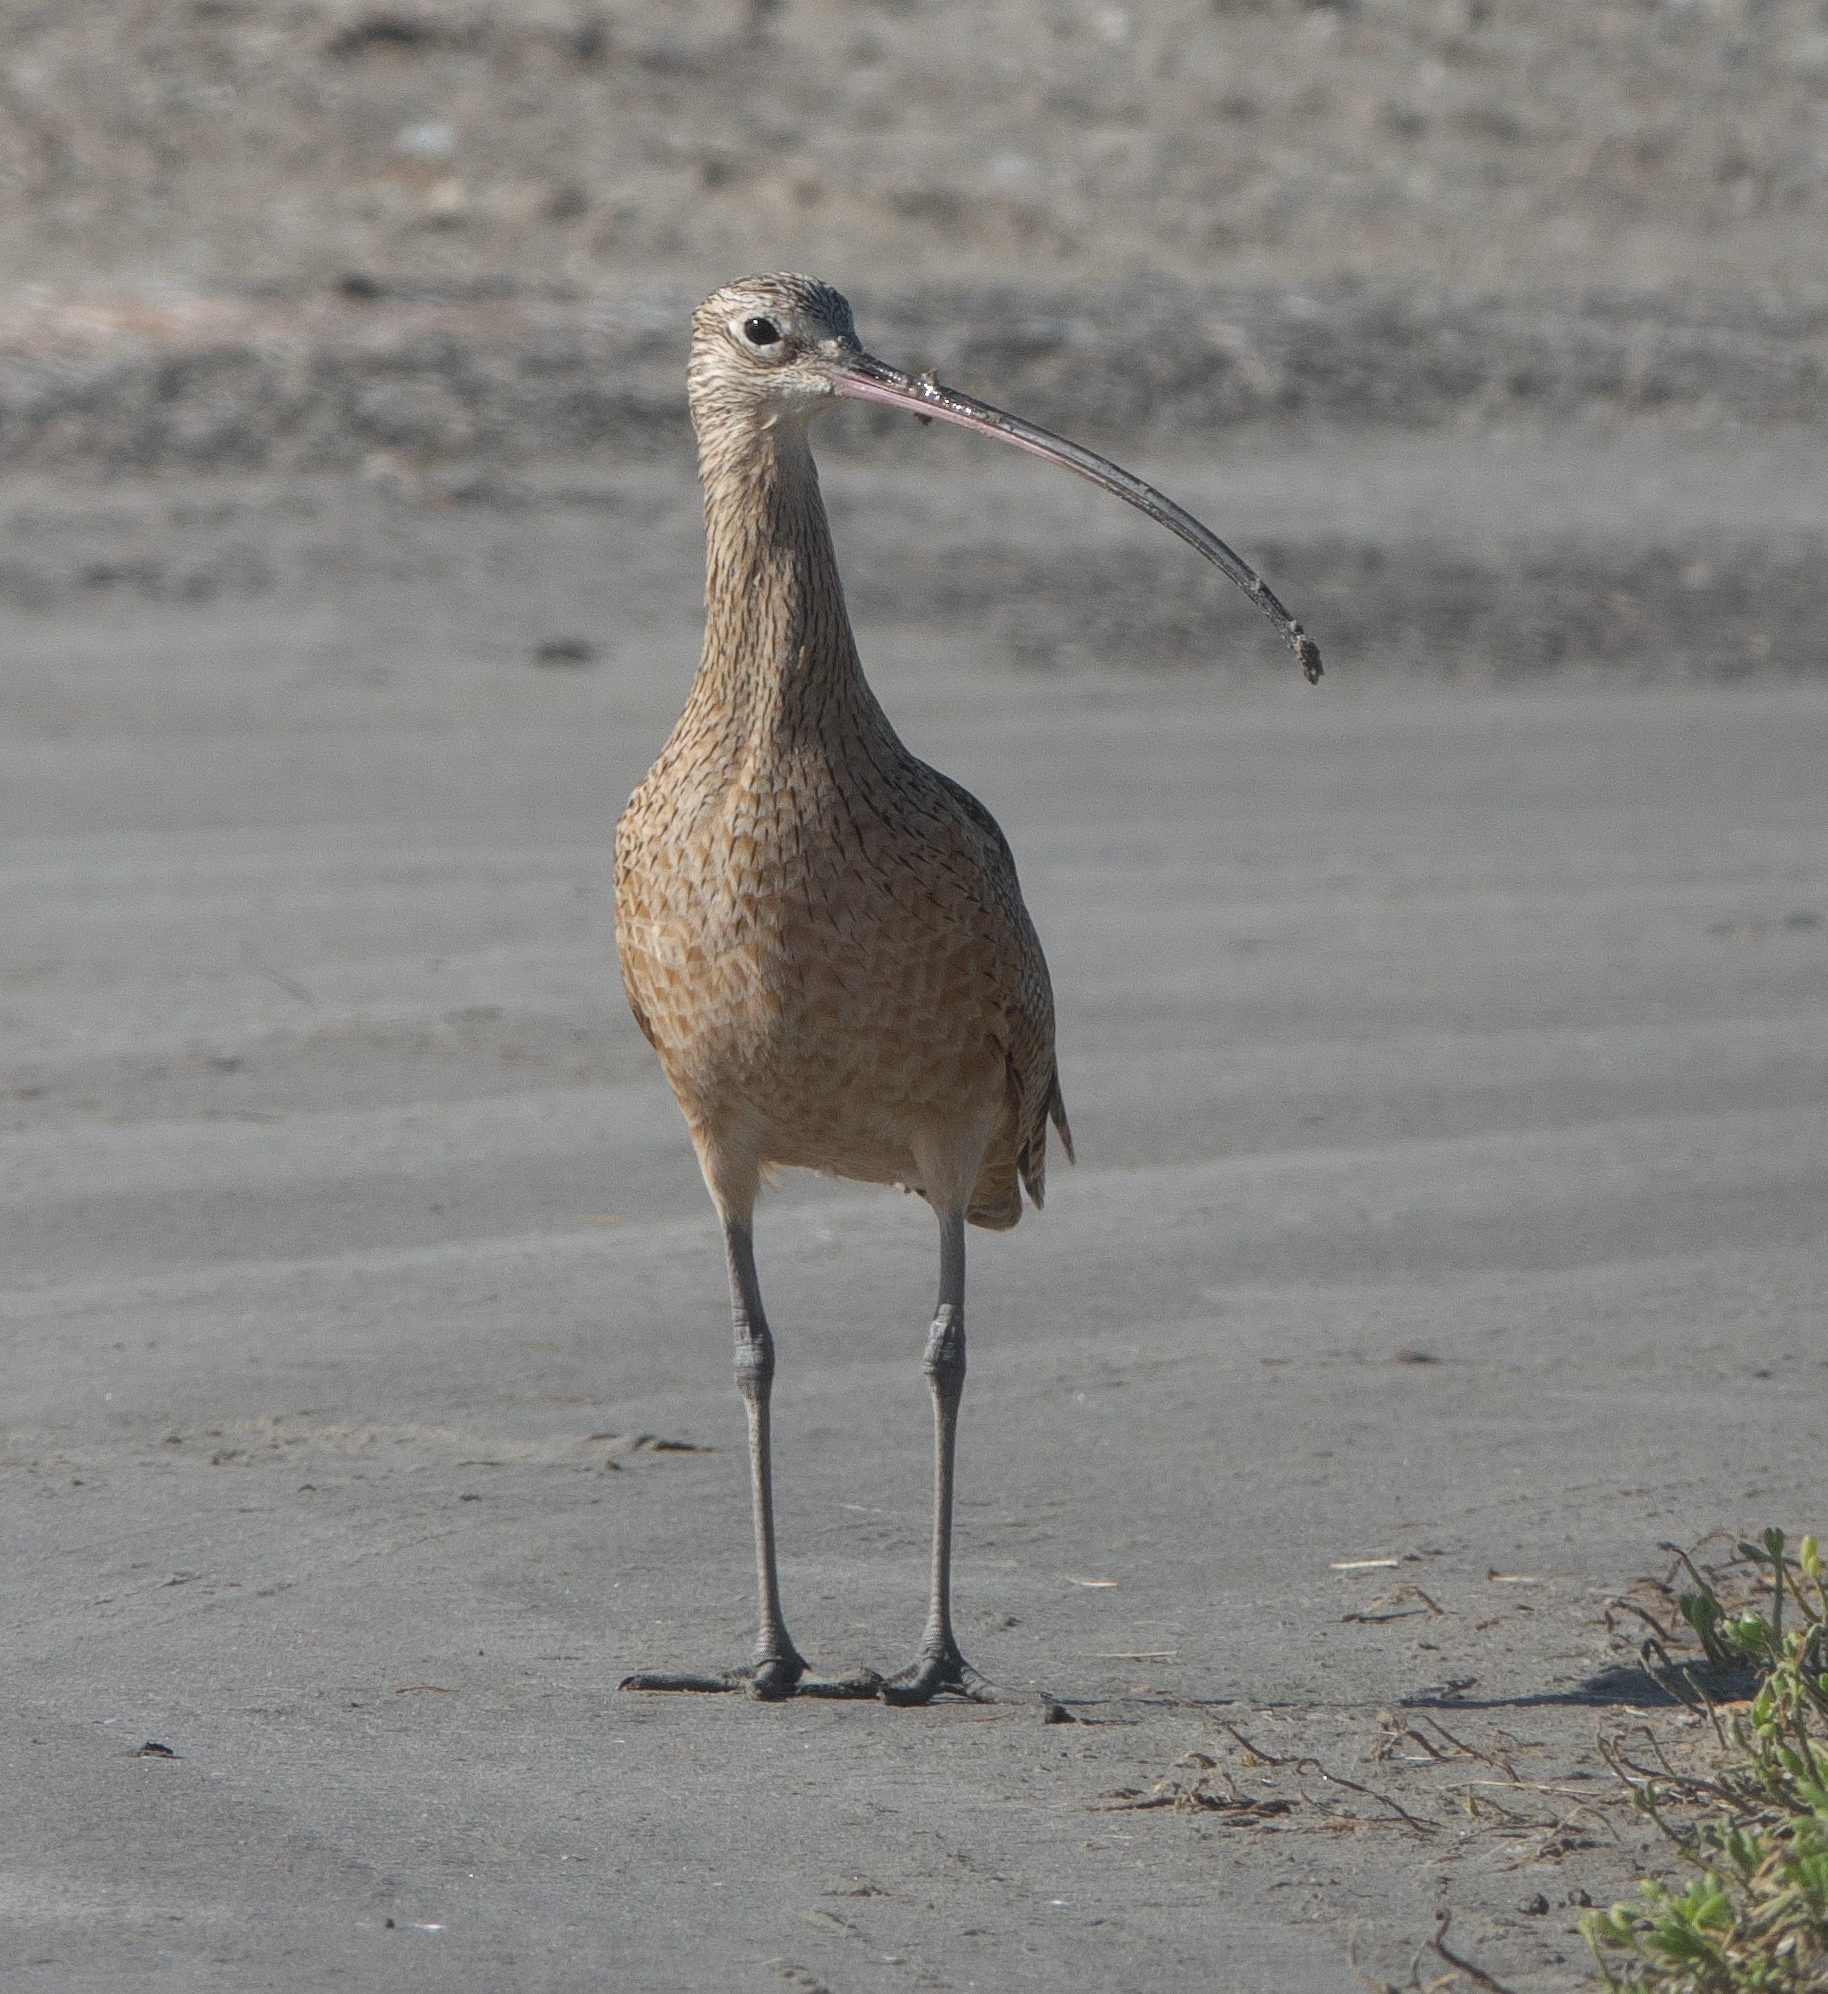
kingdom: Animalia
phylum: Chordata
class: Aves
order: Charadriiformes
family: Scolopacidae
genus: Numenius
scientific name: Numenius americanus
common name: Long-billed curlew
